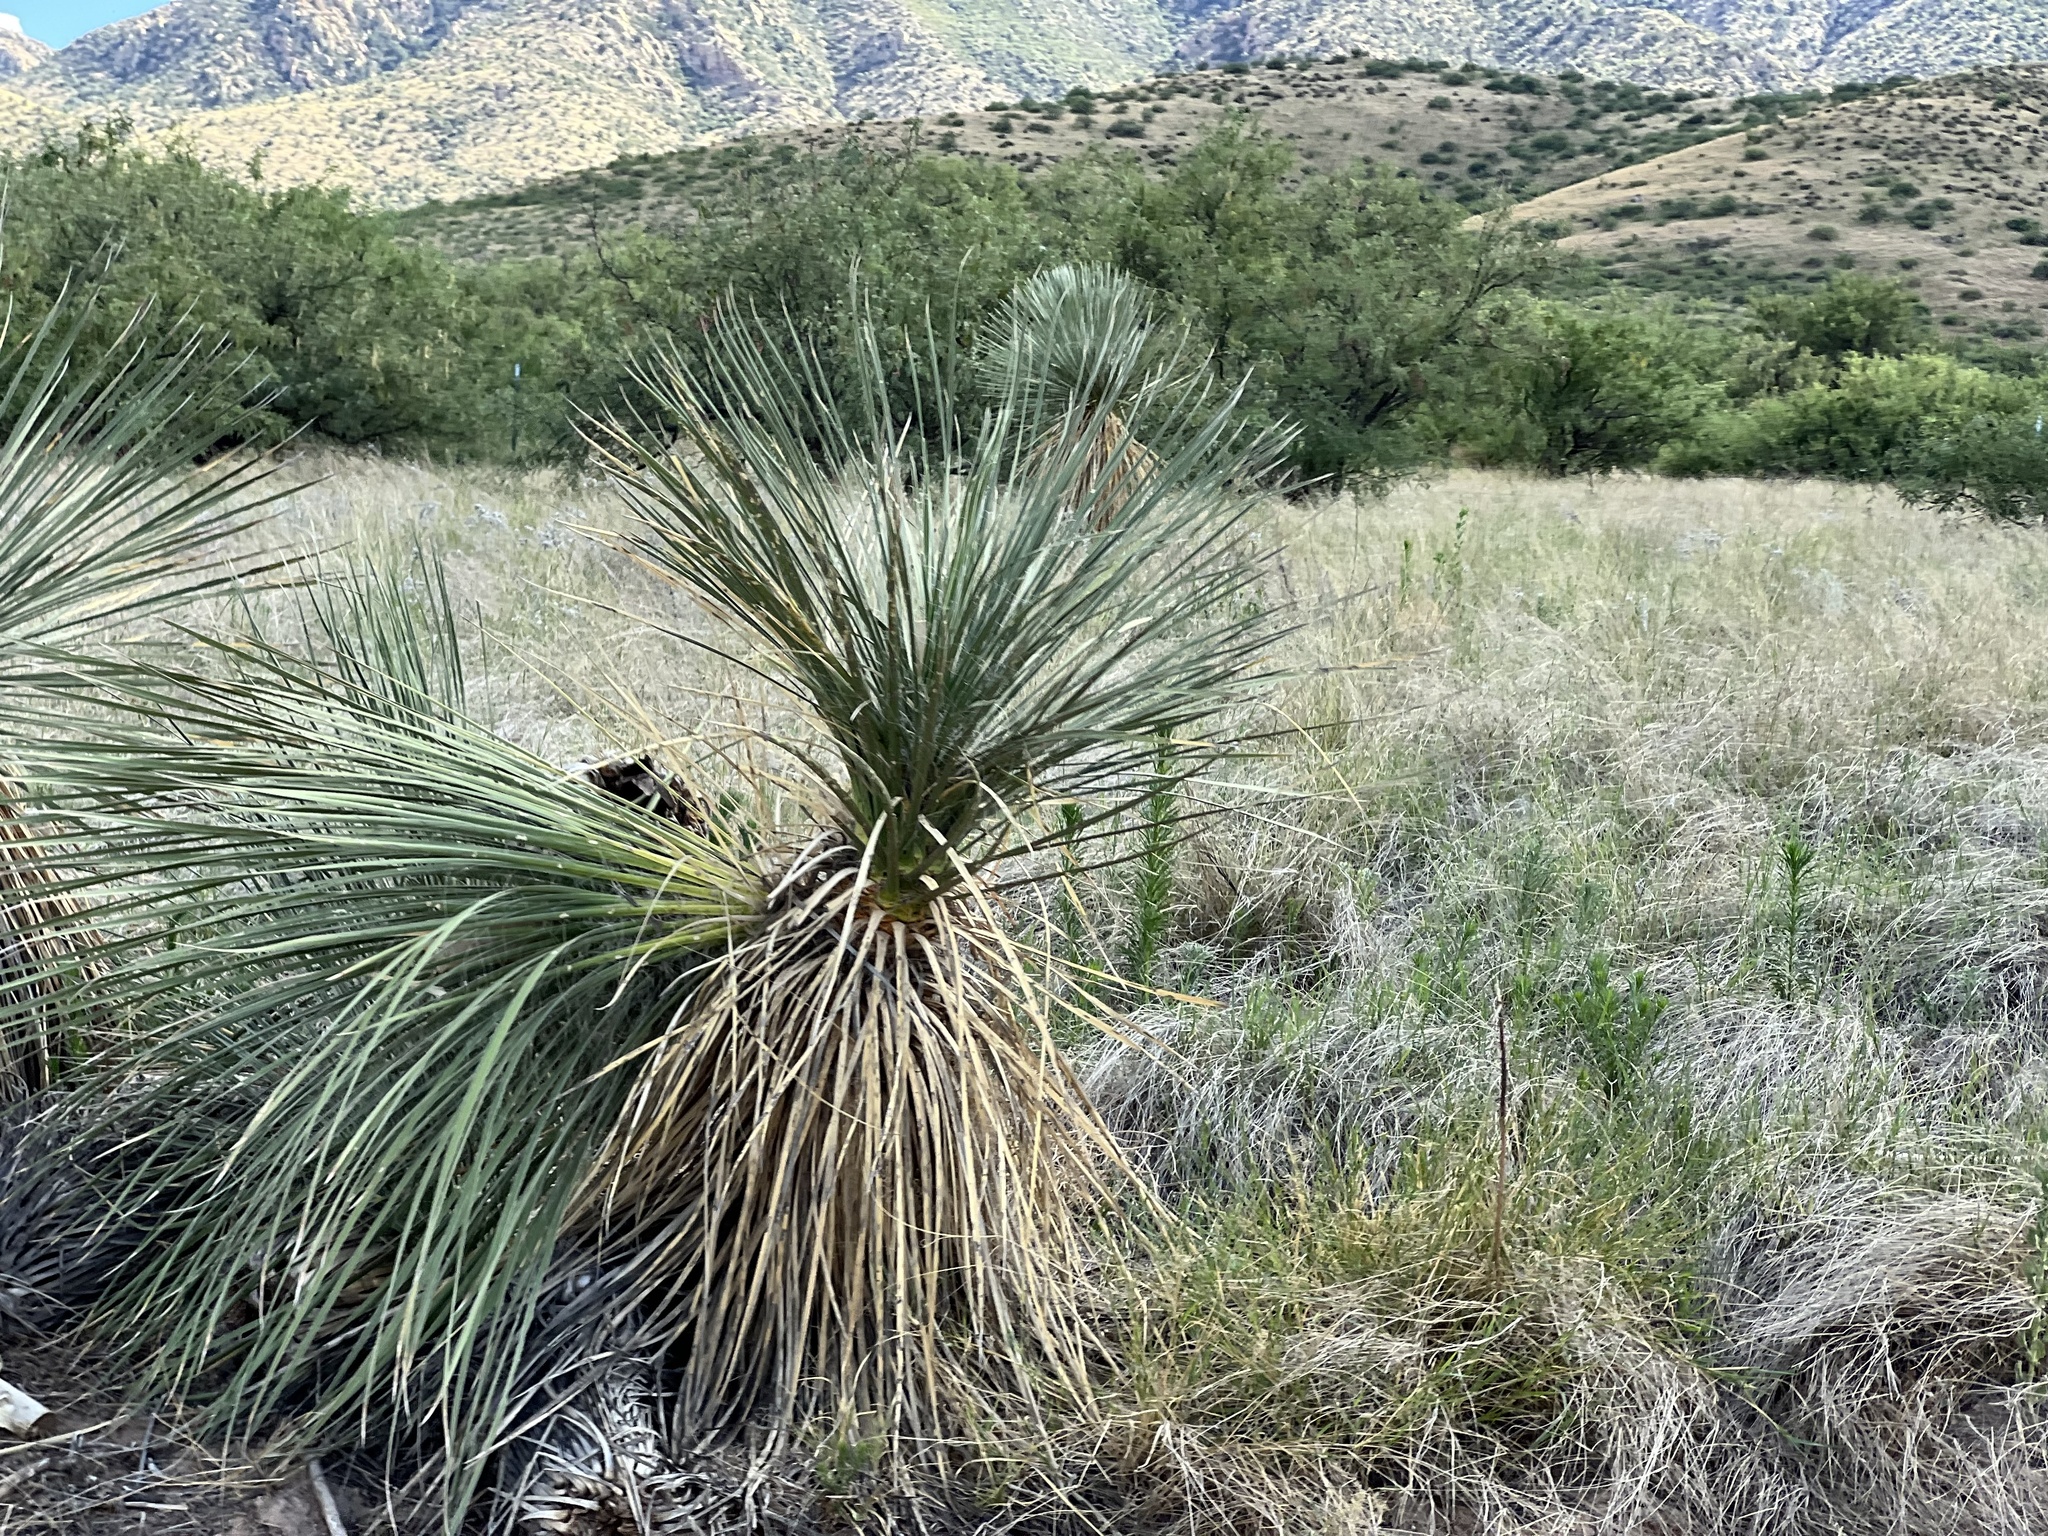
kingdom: Plantae
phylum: Tracheophyta
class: Liliopsida
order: Asparagales
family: Asparagaceae
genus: Yucca
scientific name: Yucca elata
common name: Palmella
